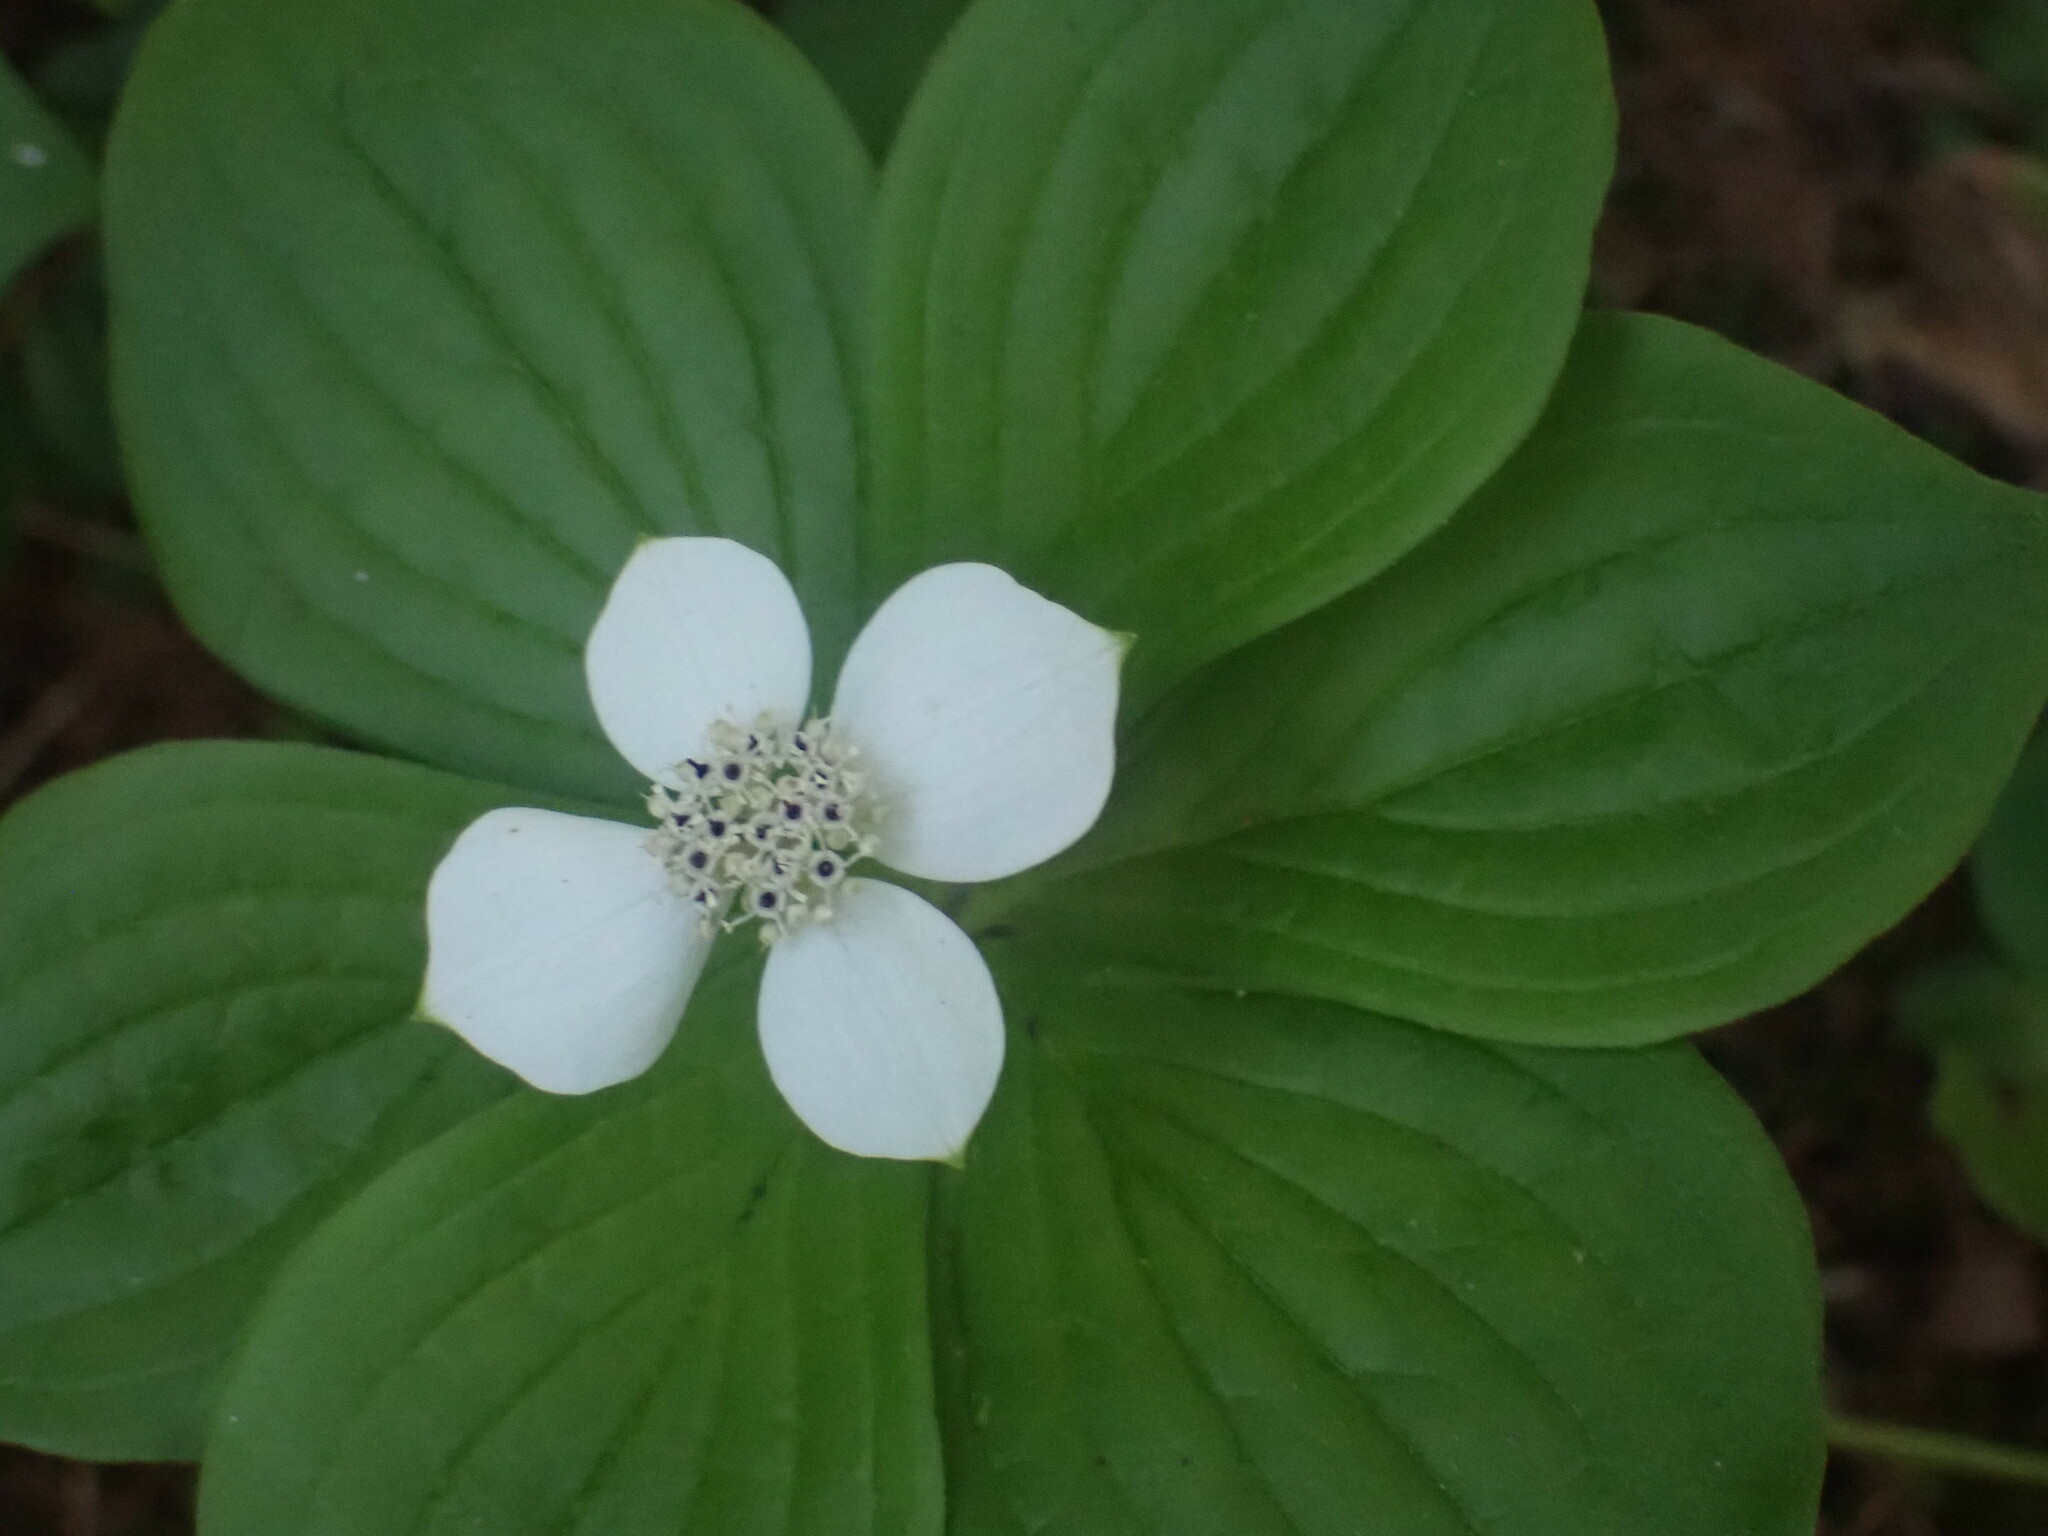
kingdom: Plantae
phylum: Tracheophyta
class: Magnoliopsida
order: Cornales
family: Cornaceae
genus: Cornus
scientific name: Cornus canadensis
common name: Creeping dogwood
